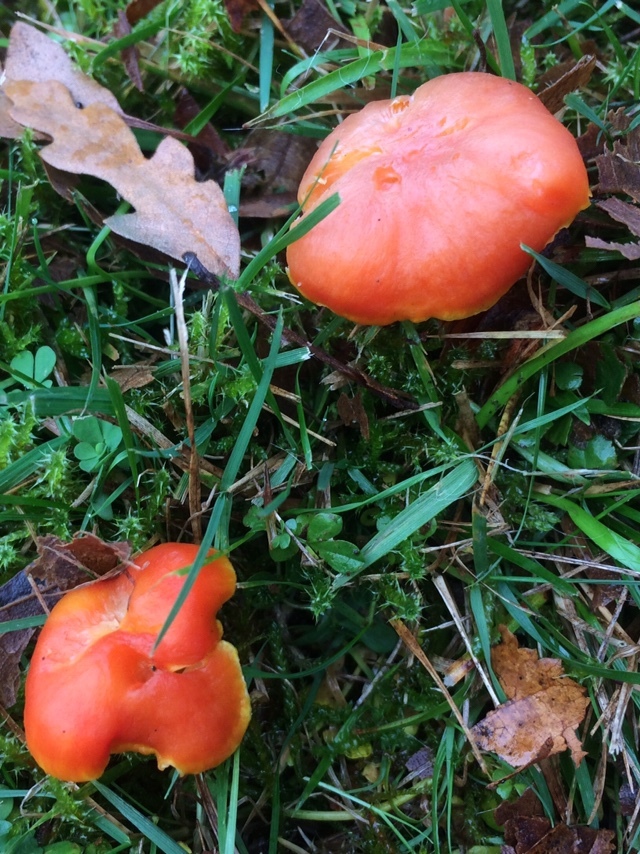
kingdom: Fungi
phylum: Basidiomycota
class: Agaricomycetes
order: Agaricales
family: Hygrophoraceae
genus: Hygrocybe
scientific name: Hygrocybe reidii
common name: Honey waxcap
